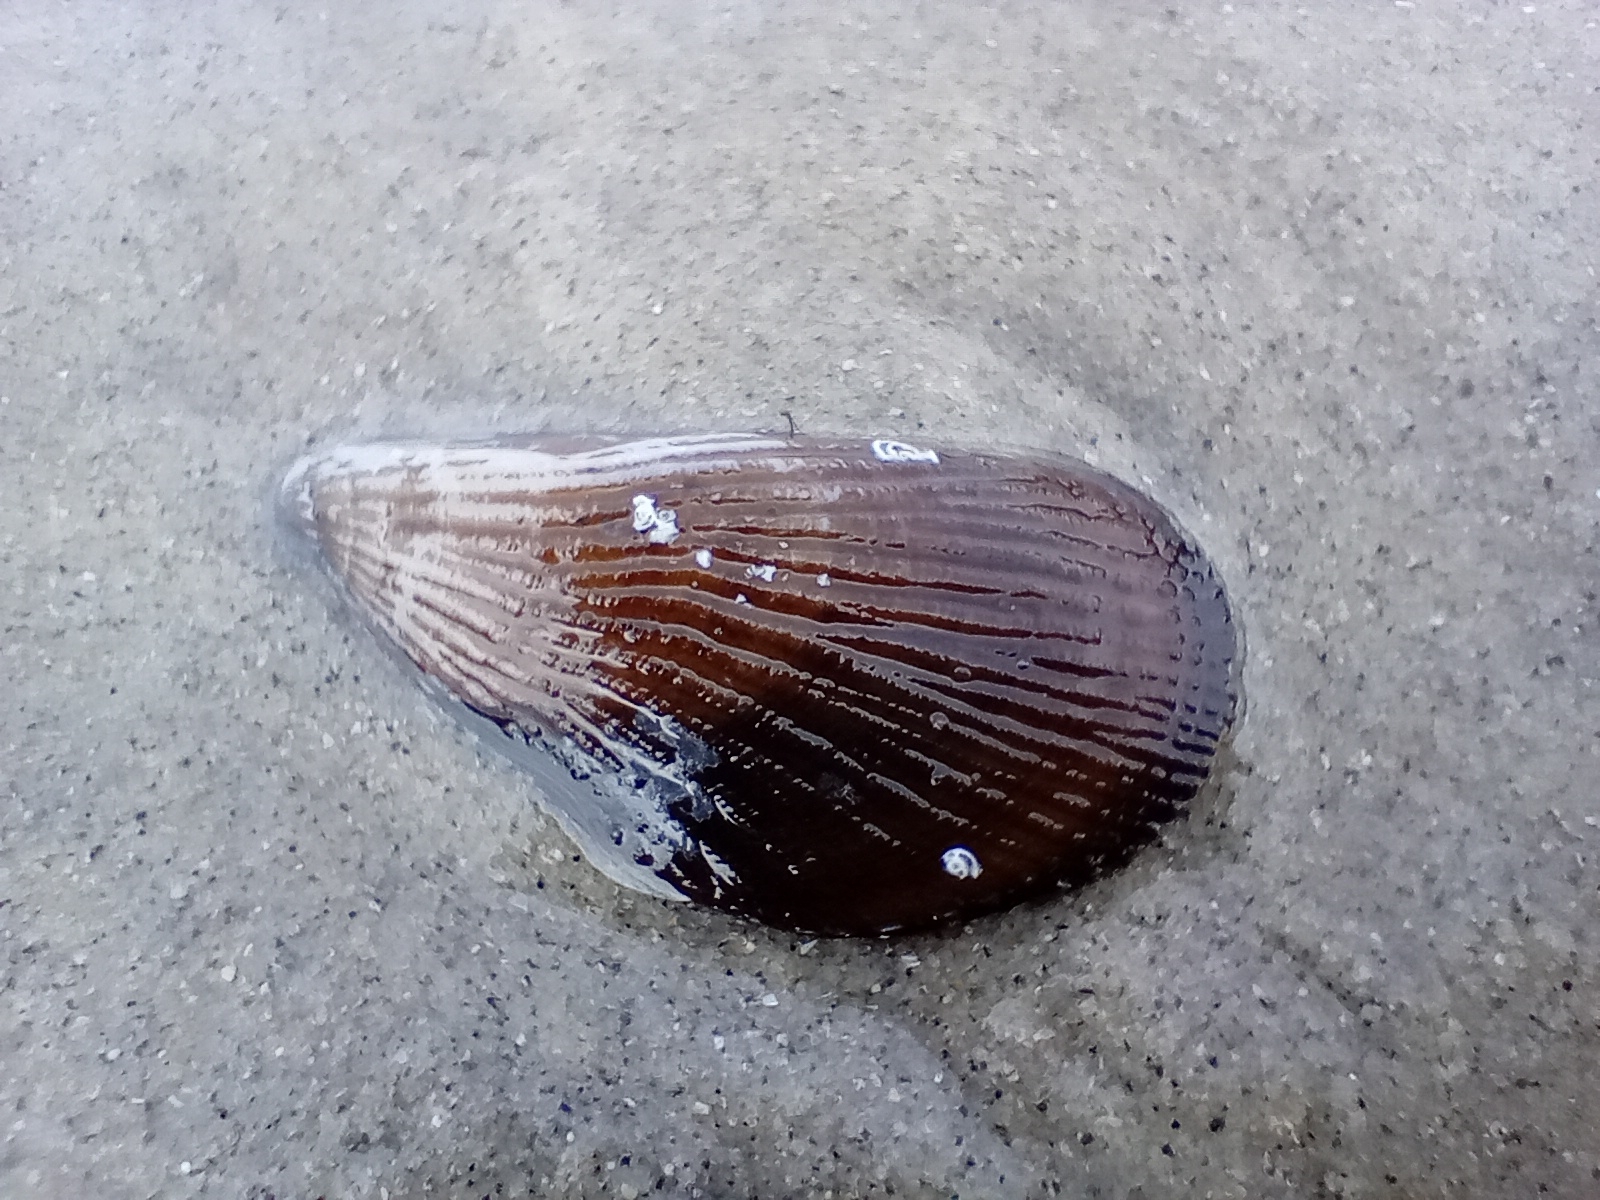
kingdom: Animalia
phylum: Mollusca
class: Bivalvia
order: Mytilida
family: Mytilidae
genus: Aulacomya
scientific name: Aulacomya maoriana
